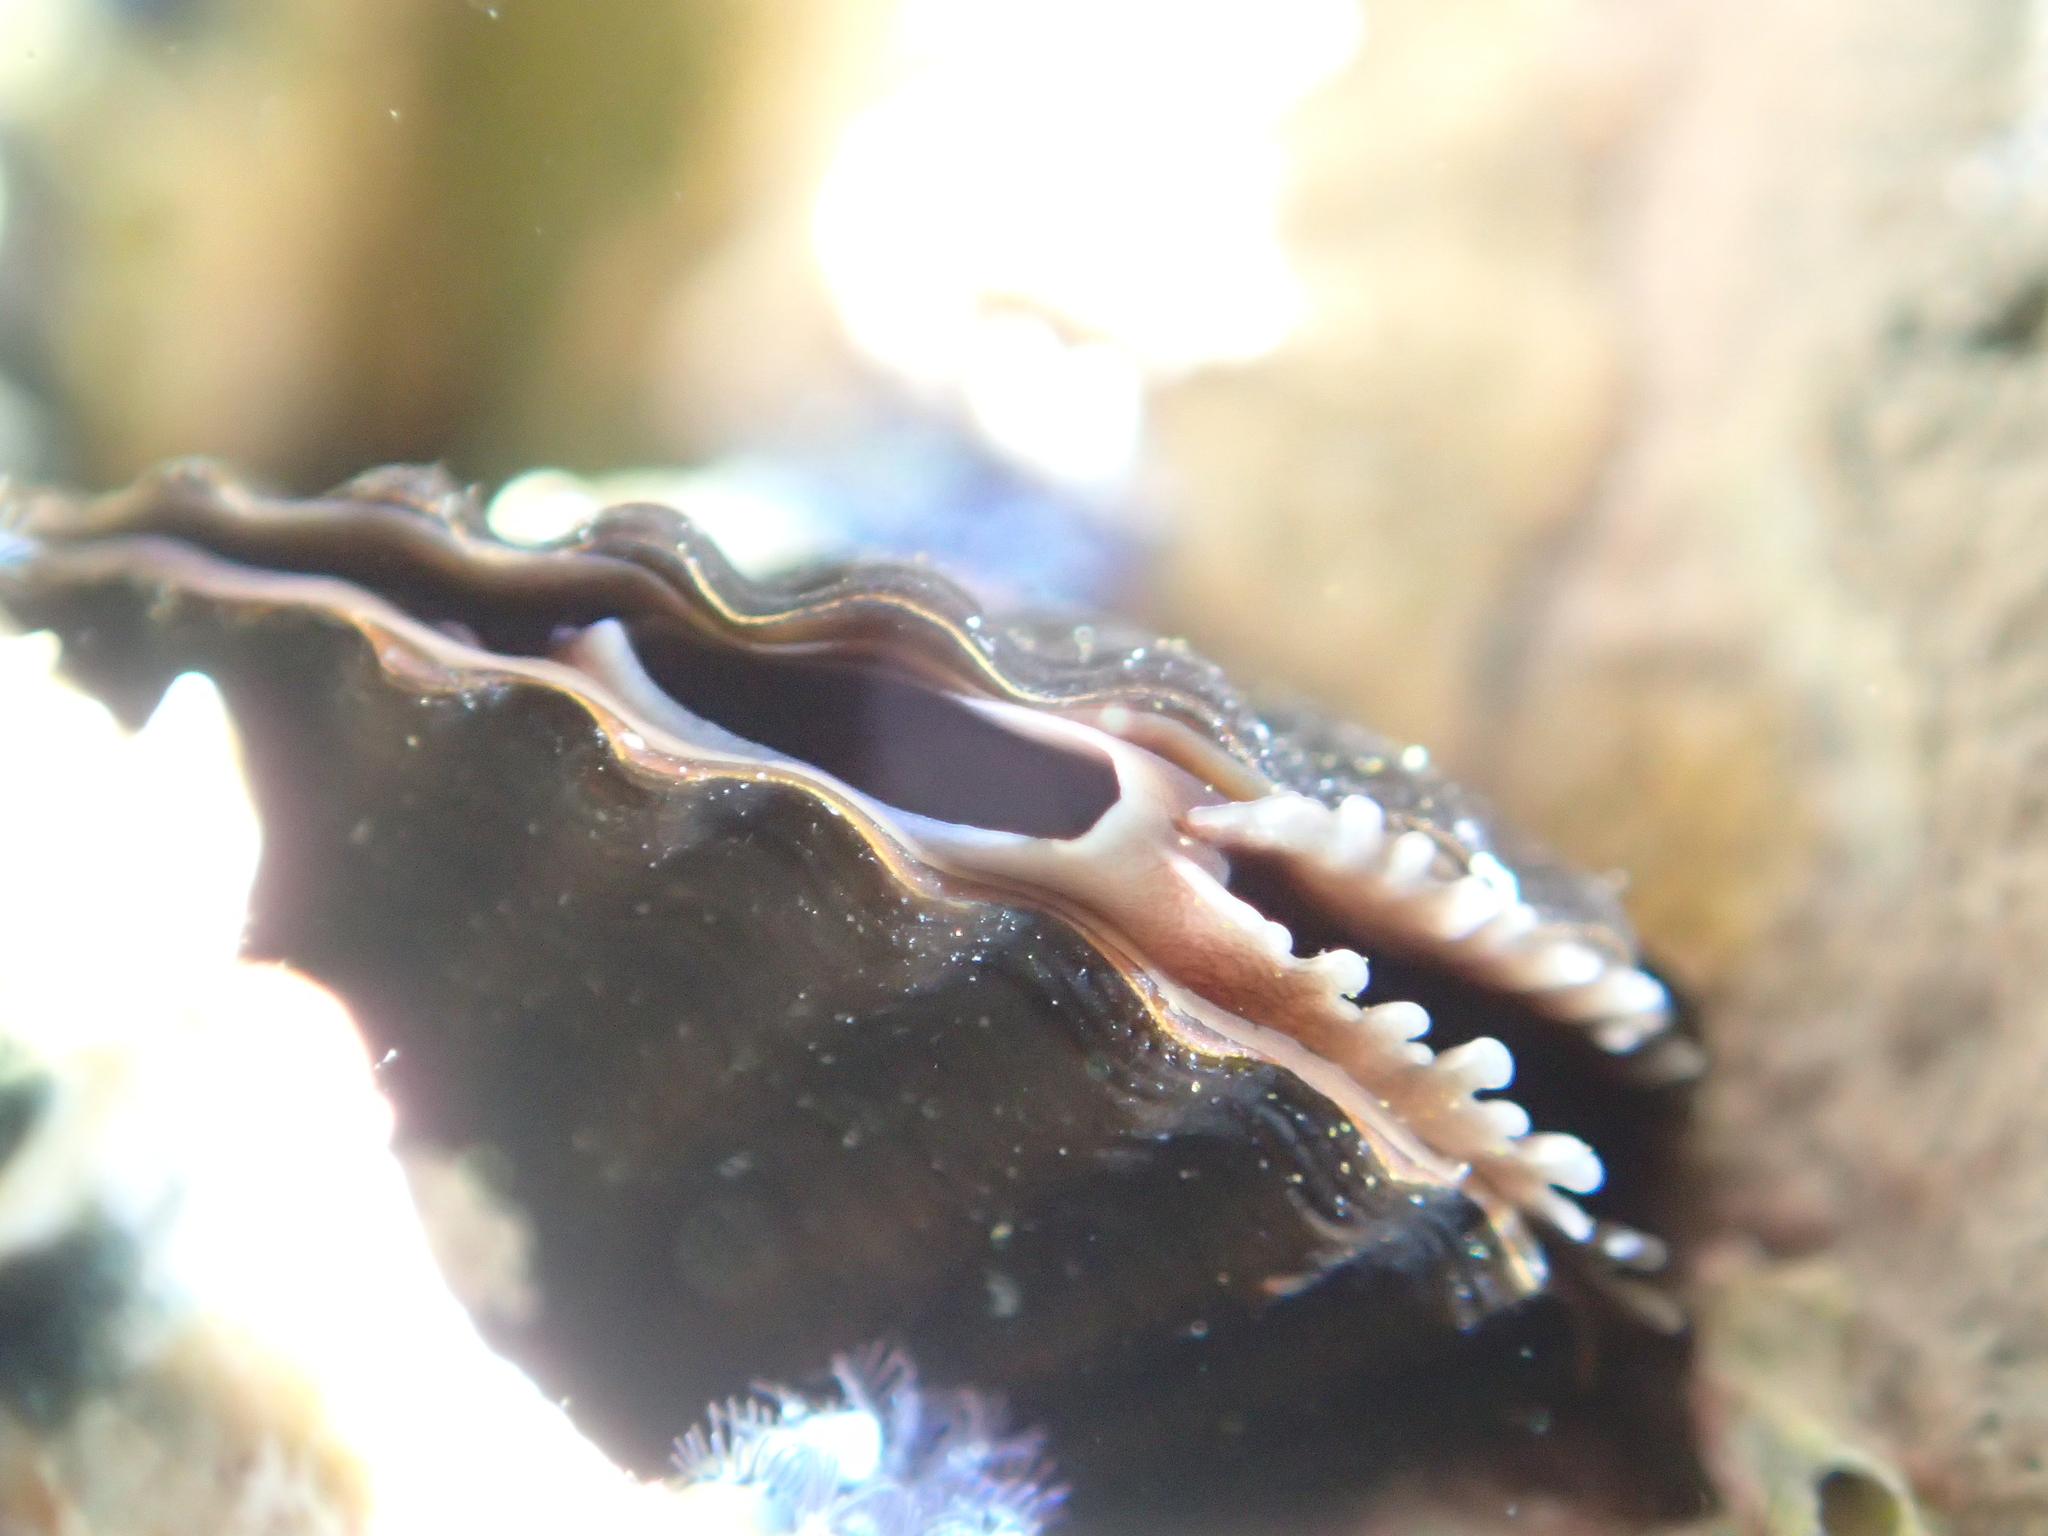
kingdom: Animalia
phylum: Mollusca
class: Bivalvia
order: Mytilida
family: Mytilidae
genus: Aulacomya
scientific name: Aulacomya maoriana
